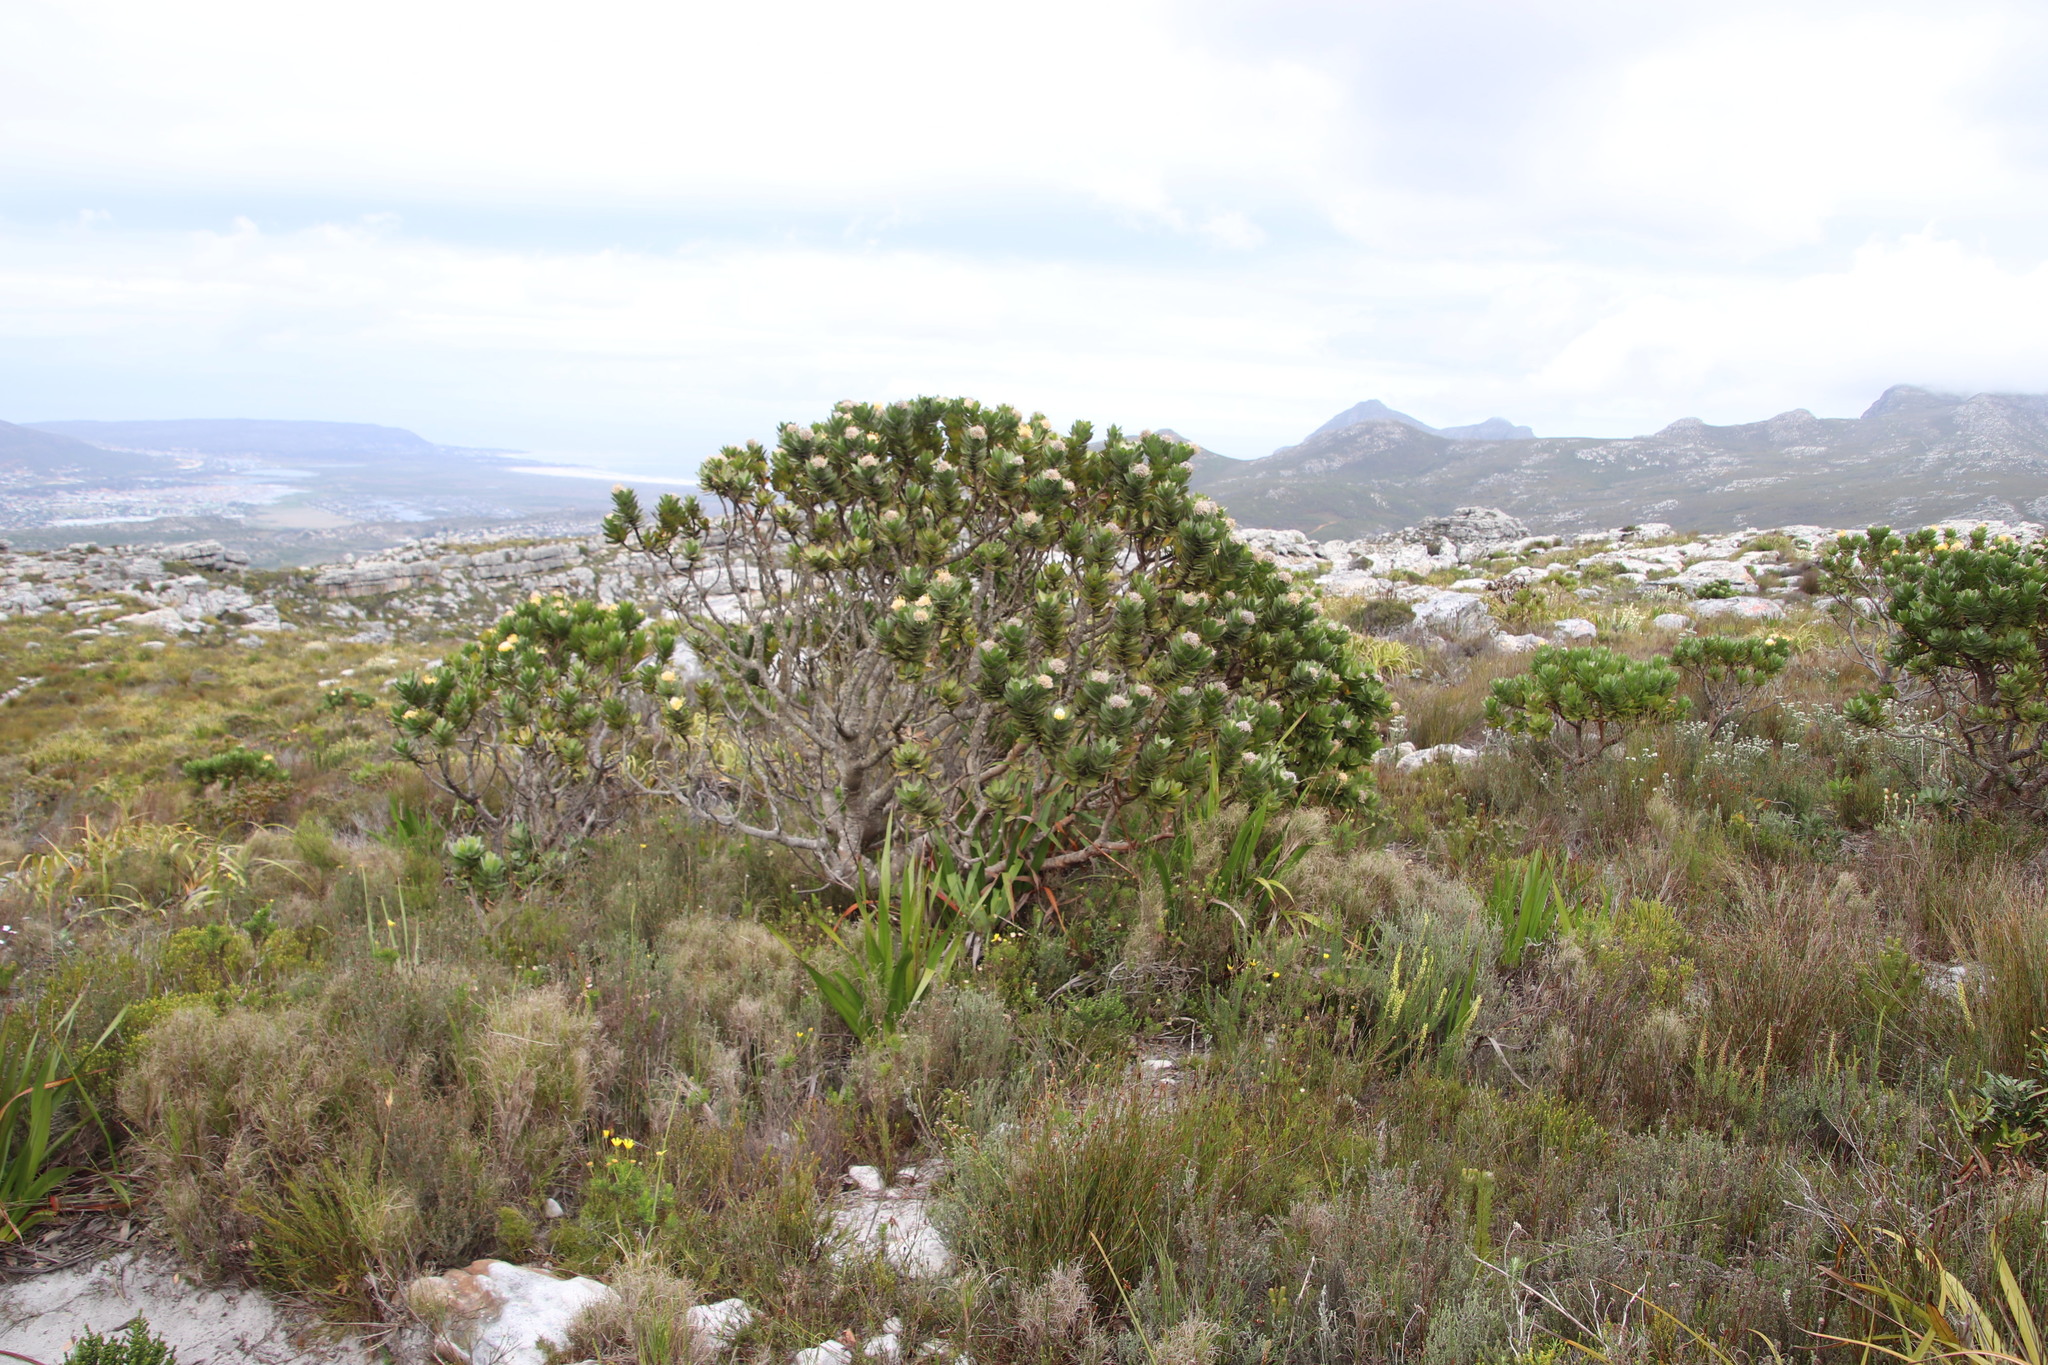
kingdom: Plantae
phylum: Tracheophyta
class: Magnoliopsida
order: Proteales
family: Proteaceae
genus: Leucospermum
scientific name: Leucospermum conocarpodendron
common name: Tree pincushion
